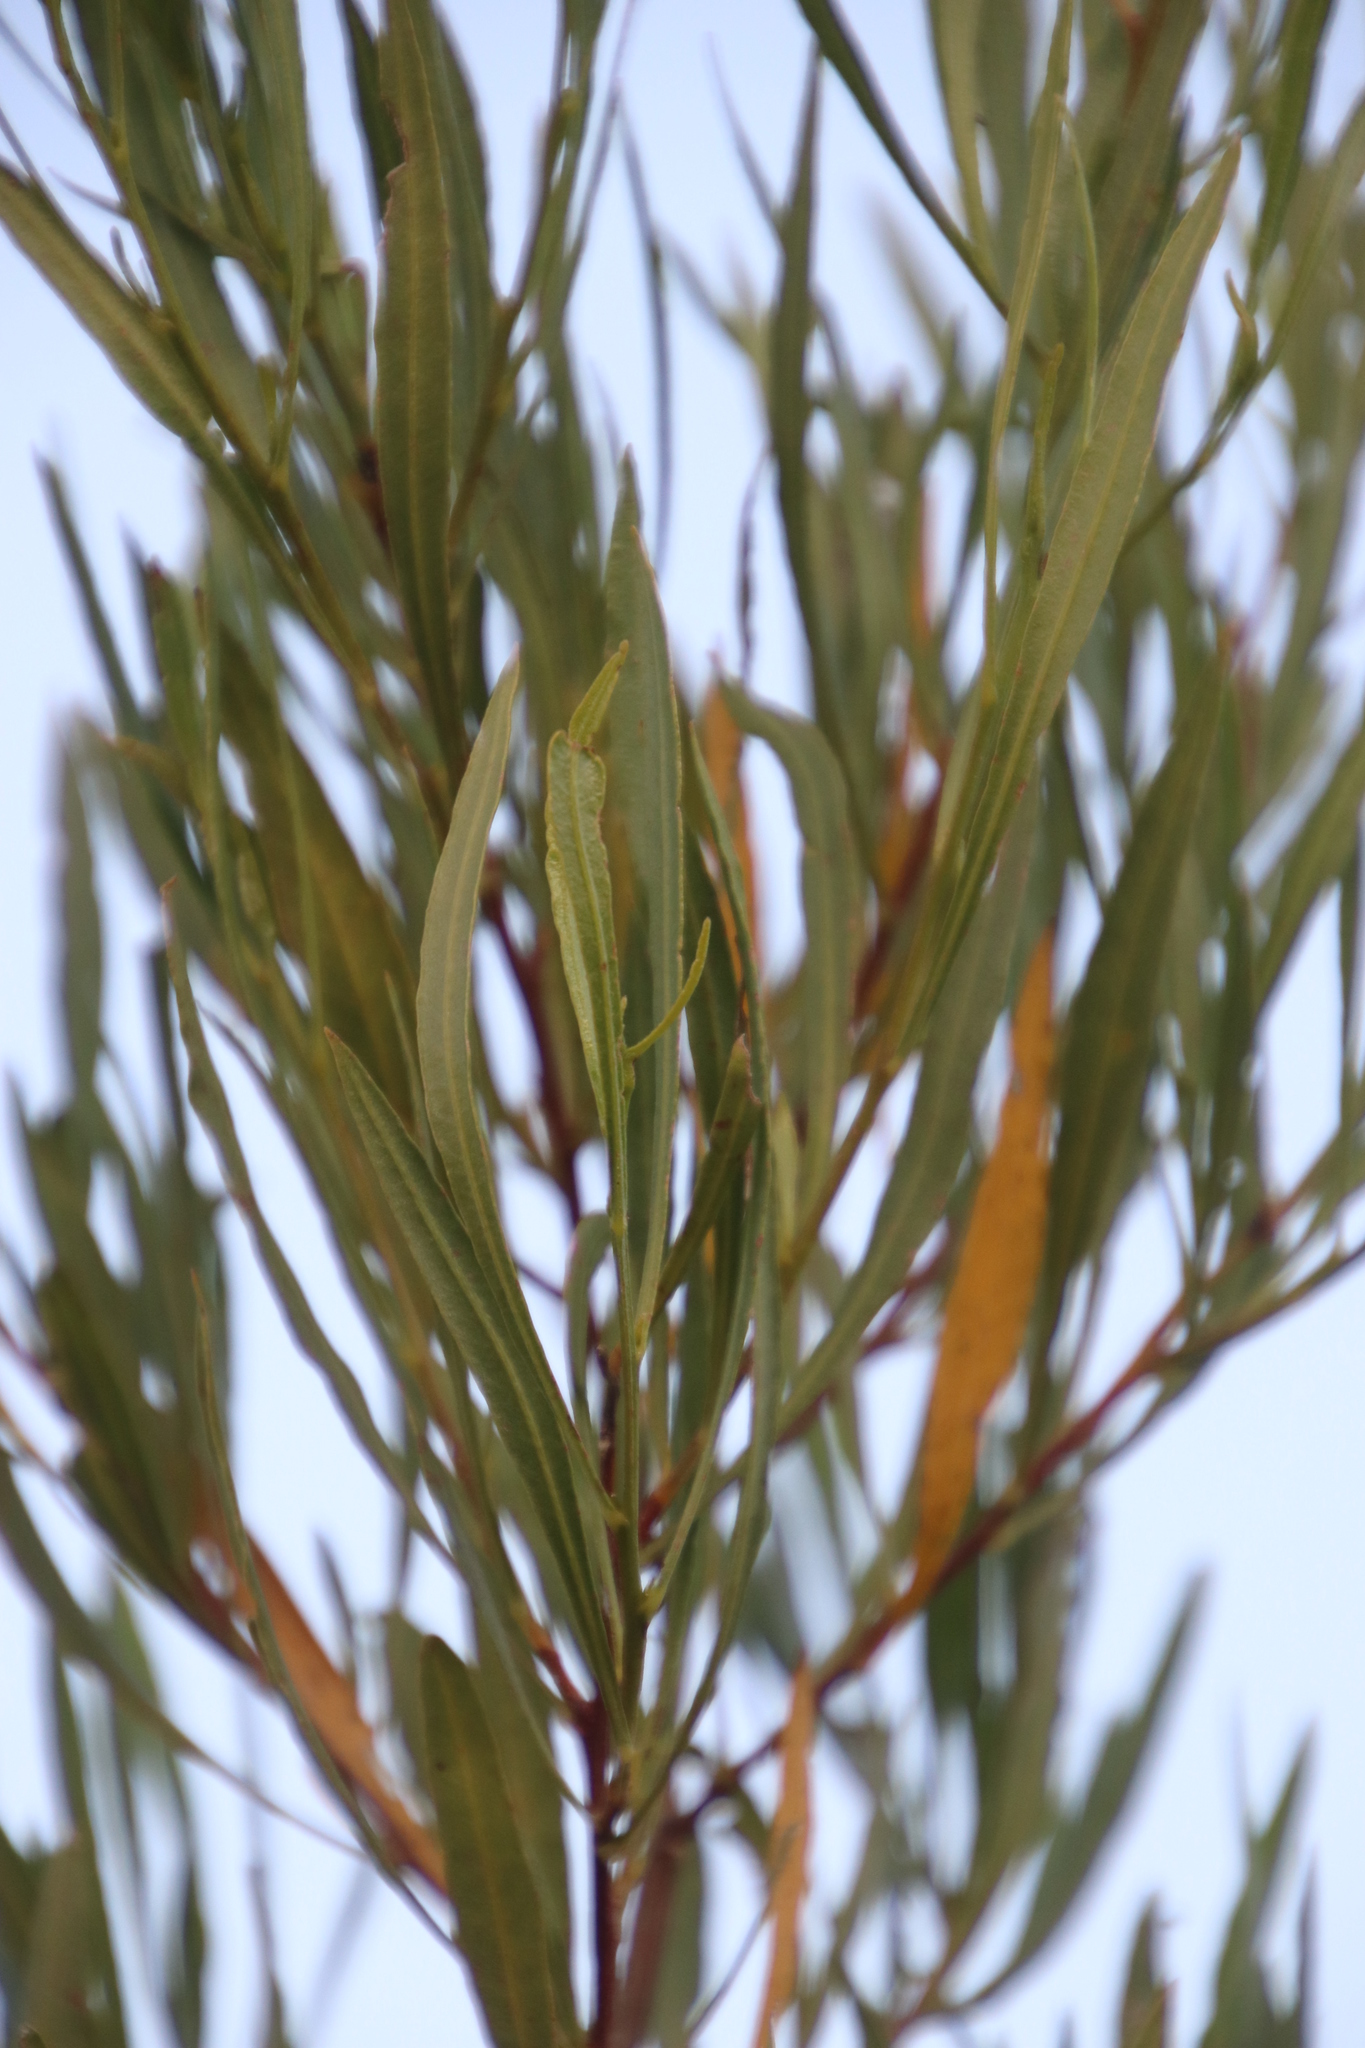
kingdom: Plantae
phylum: Tracheophyta
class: Magnoliopsida
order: Sapindales
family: Sapindaceae
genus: Dodonaea
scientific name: Dodonaea viscosa
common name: Hopbush
